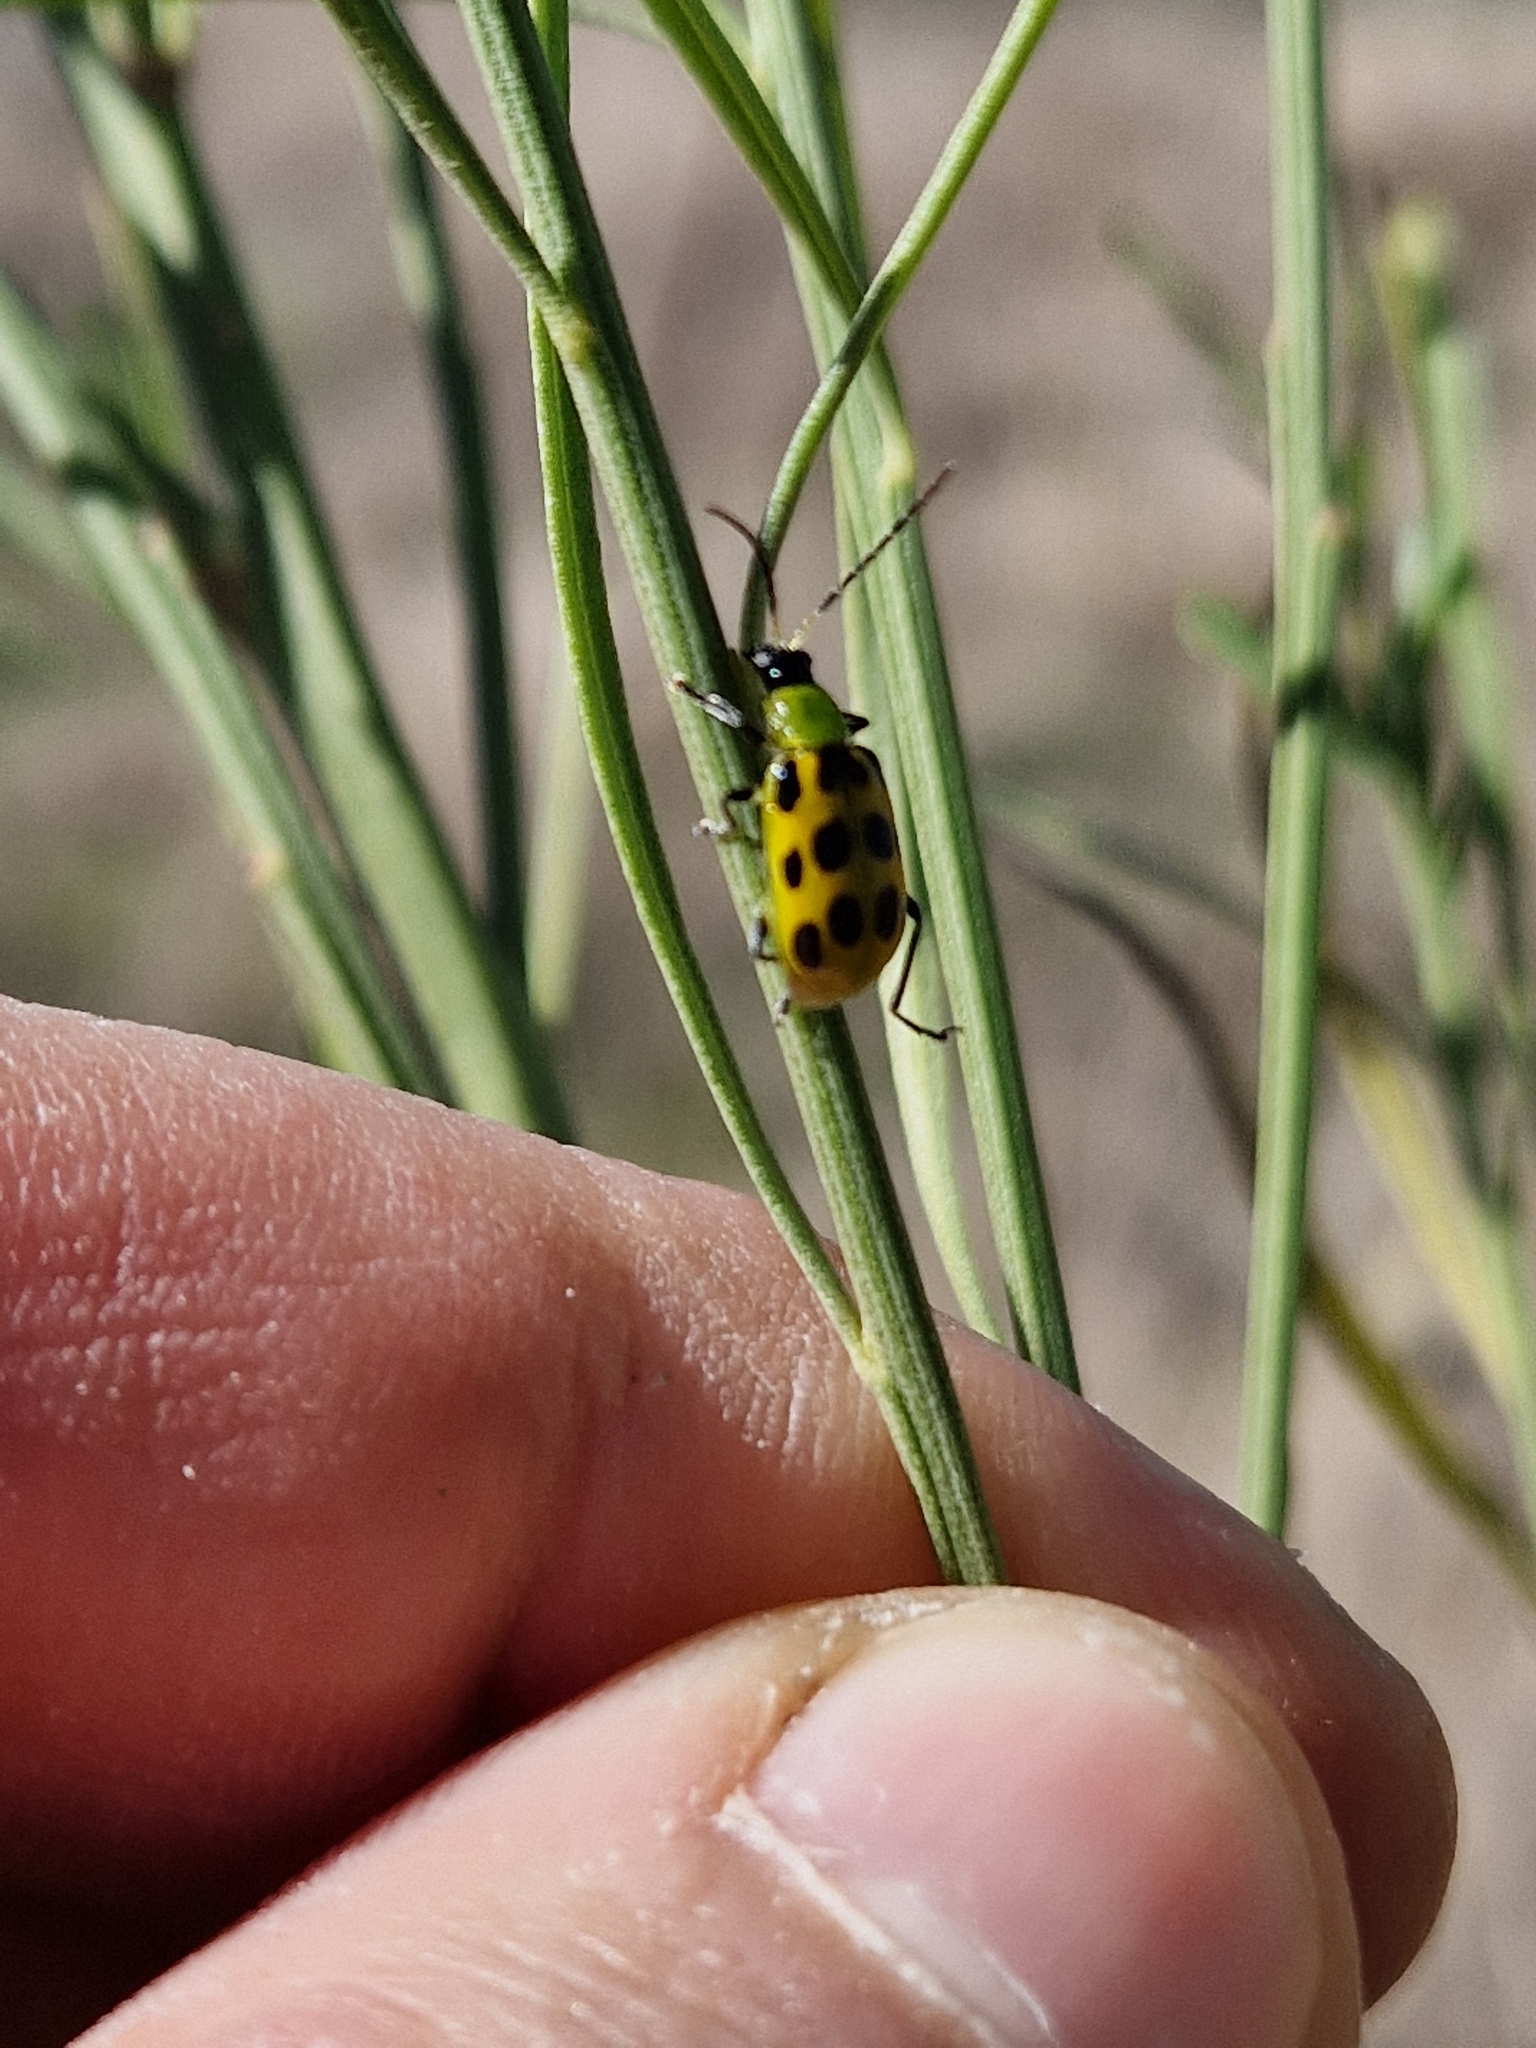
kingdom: Animalia
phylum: Arthropoda
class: Insecta
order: Coleoptera
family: Chrysomelidae
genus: Diabrotica
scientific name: Diabrotica undecimpunctata
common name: Spotted cucumber beetle
